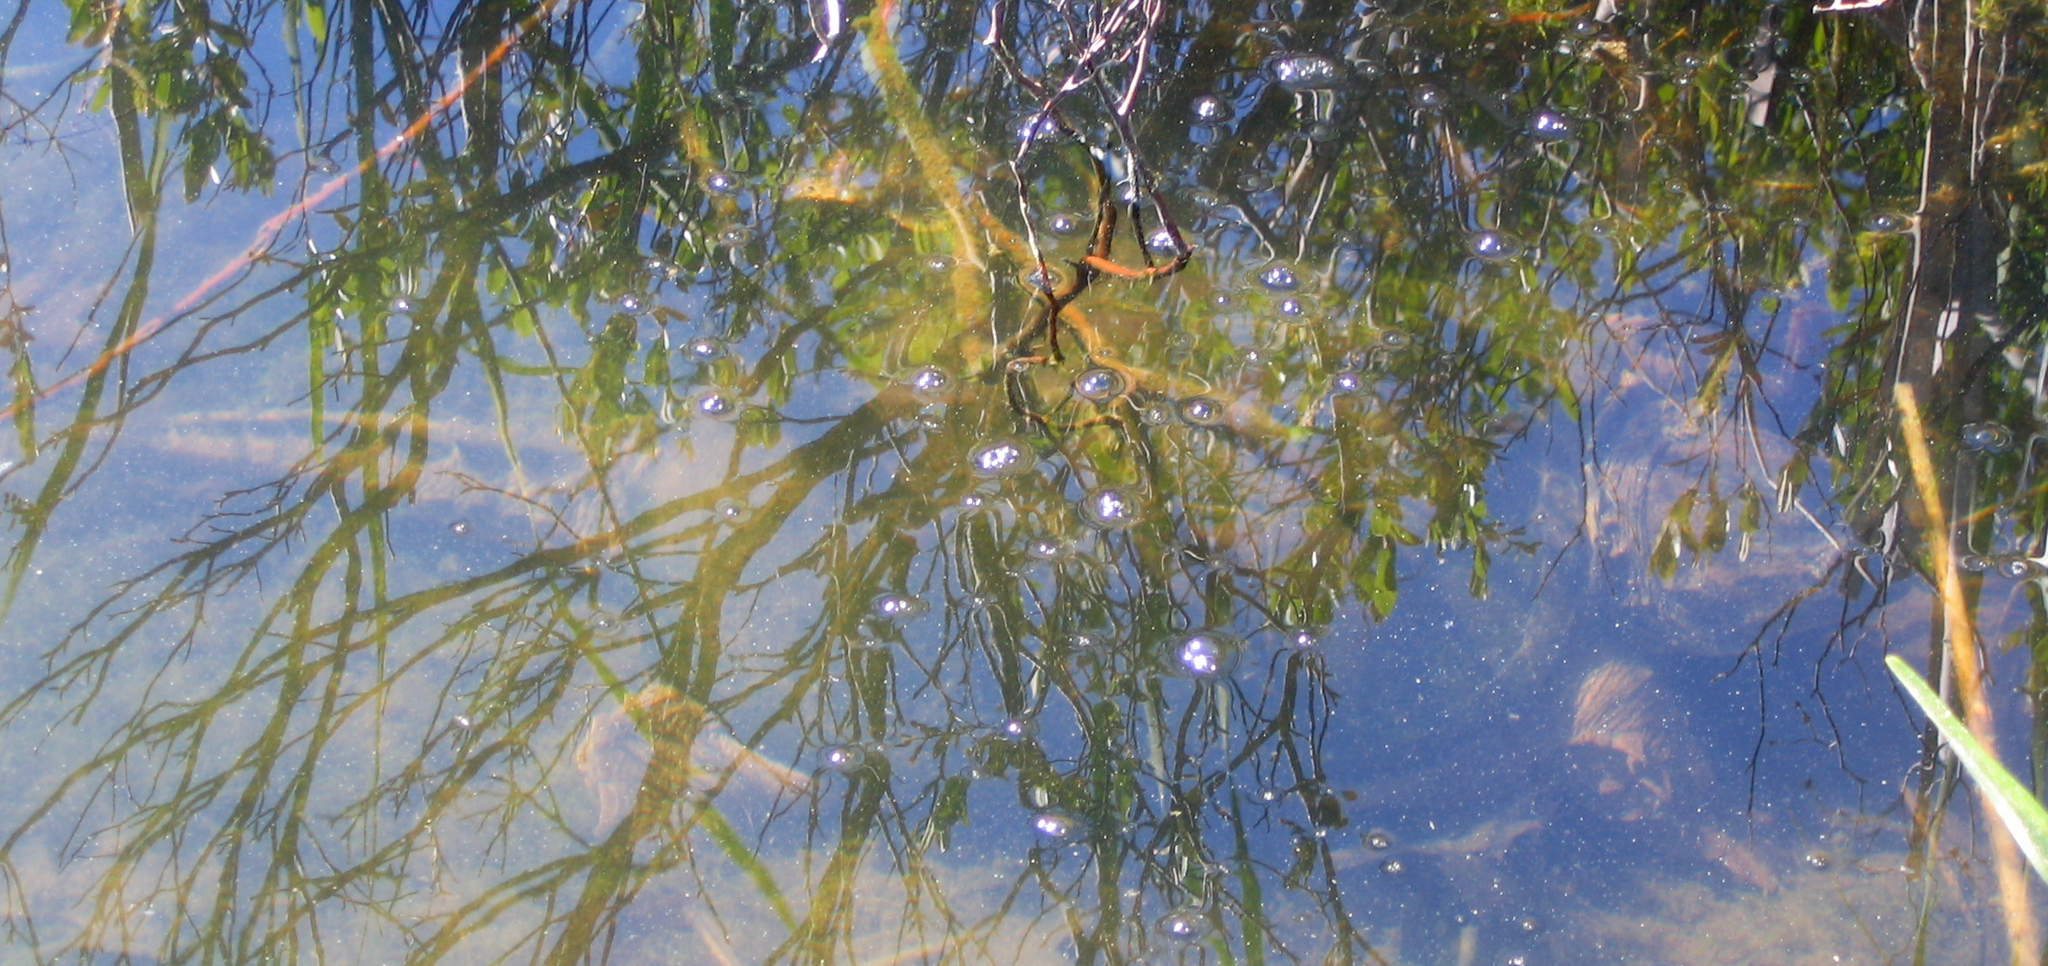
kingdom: Animalia
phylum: Chordata
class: Testudines
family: Chelydridae
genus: Chelydra
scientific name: Chelydra serpentina
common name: Common snapping turtle
